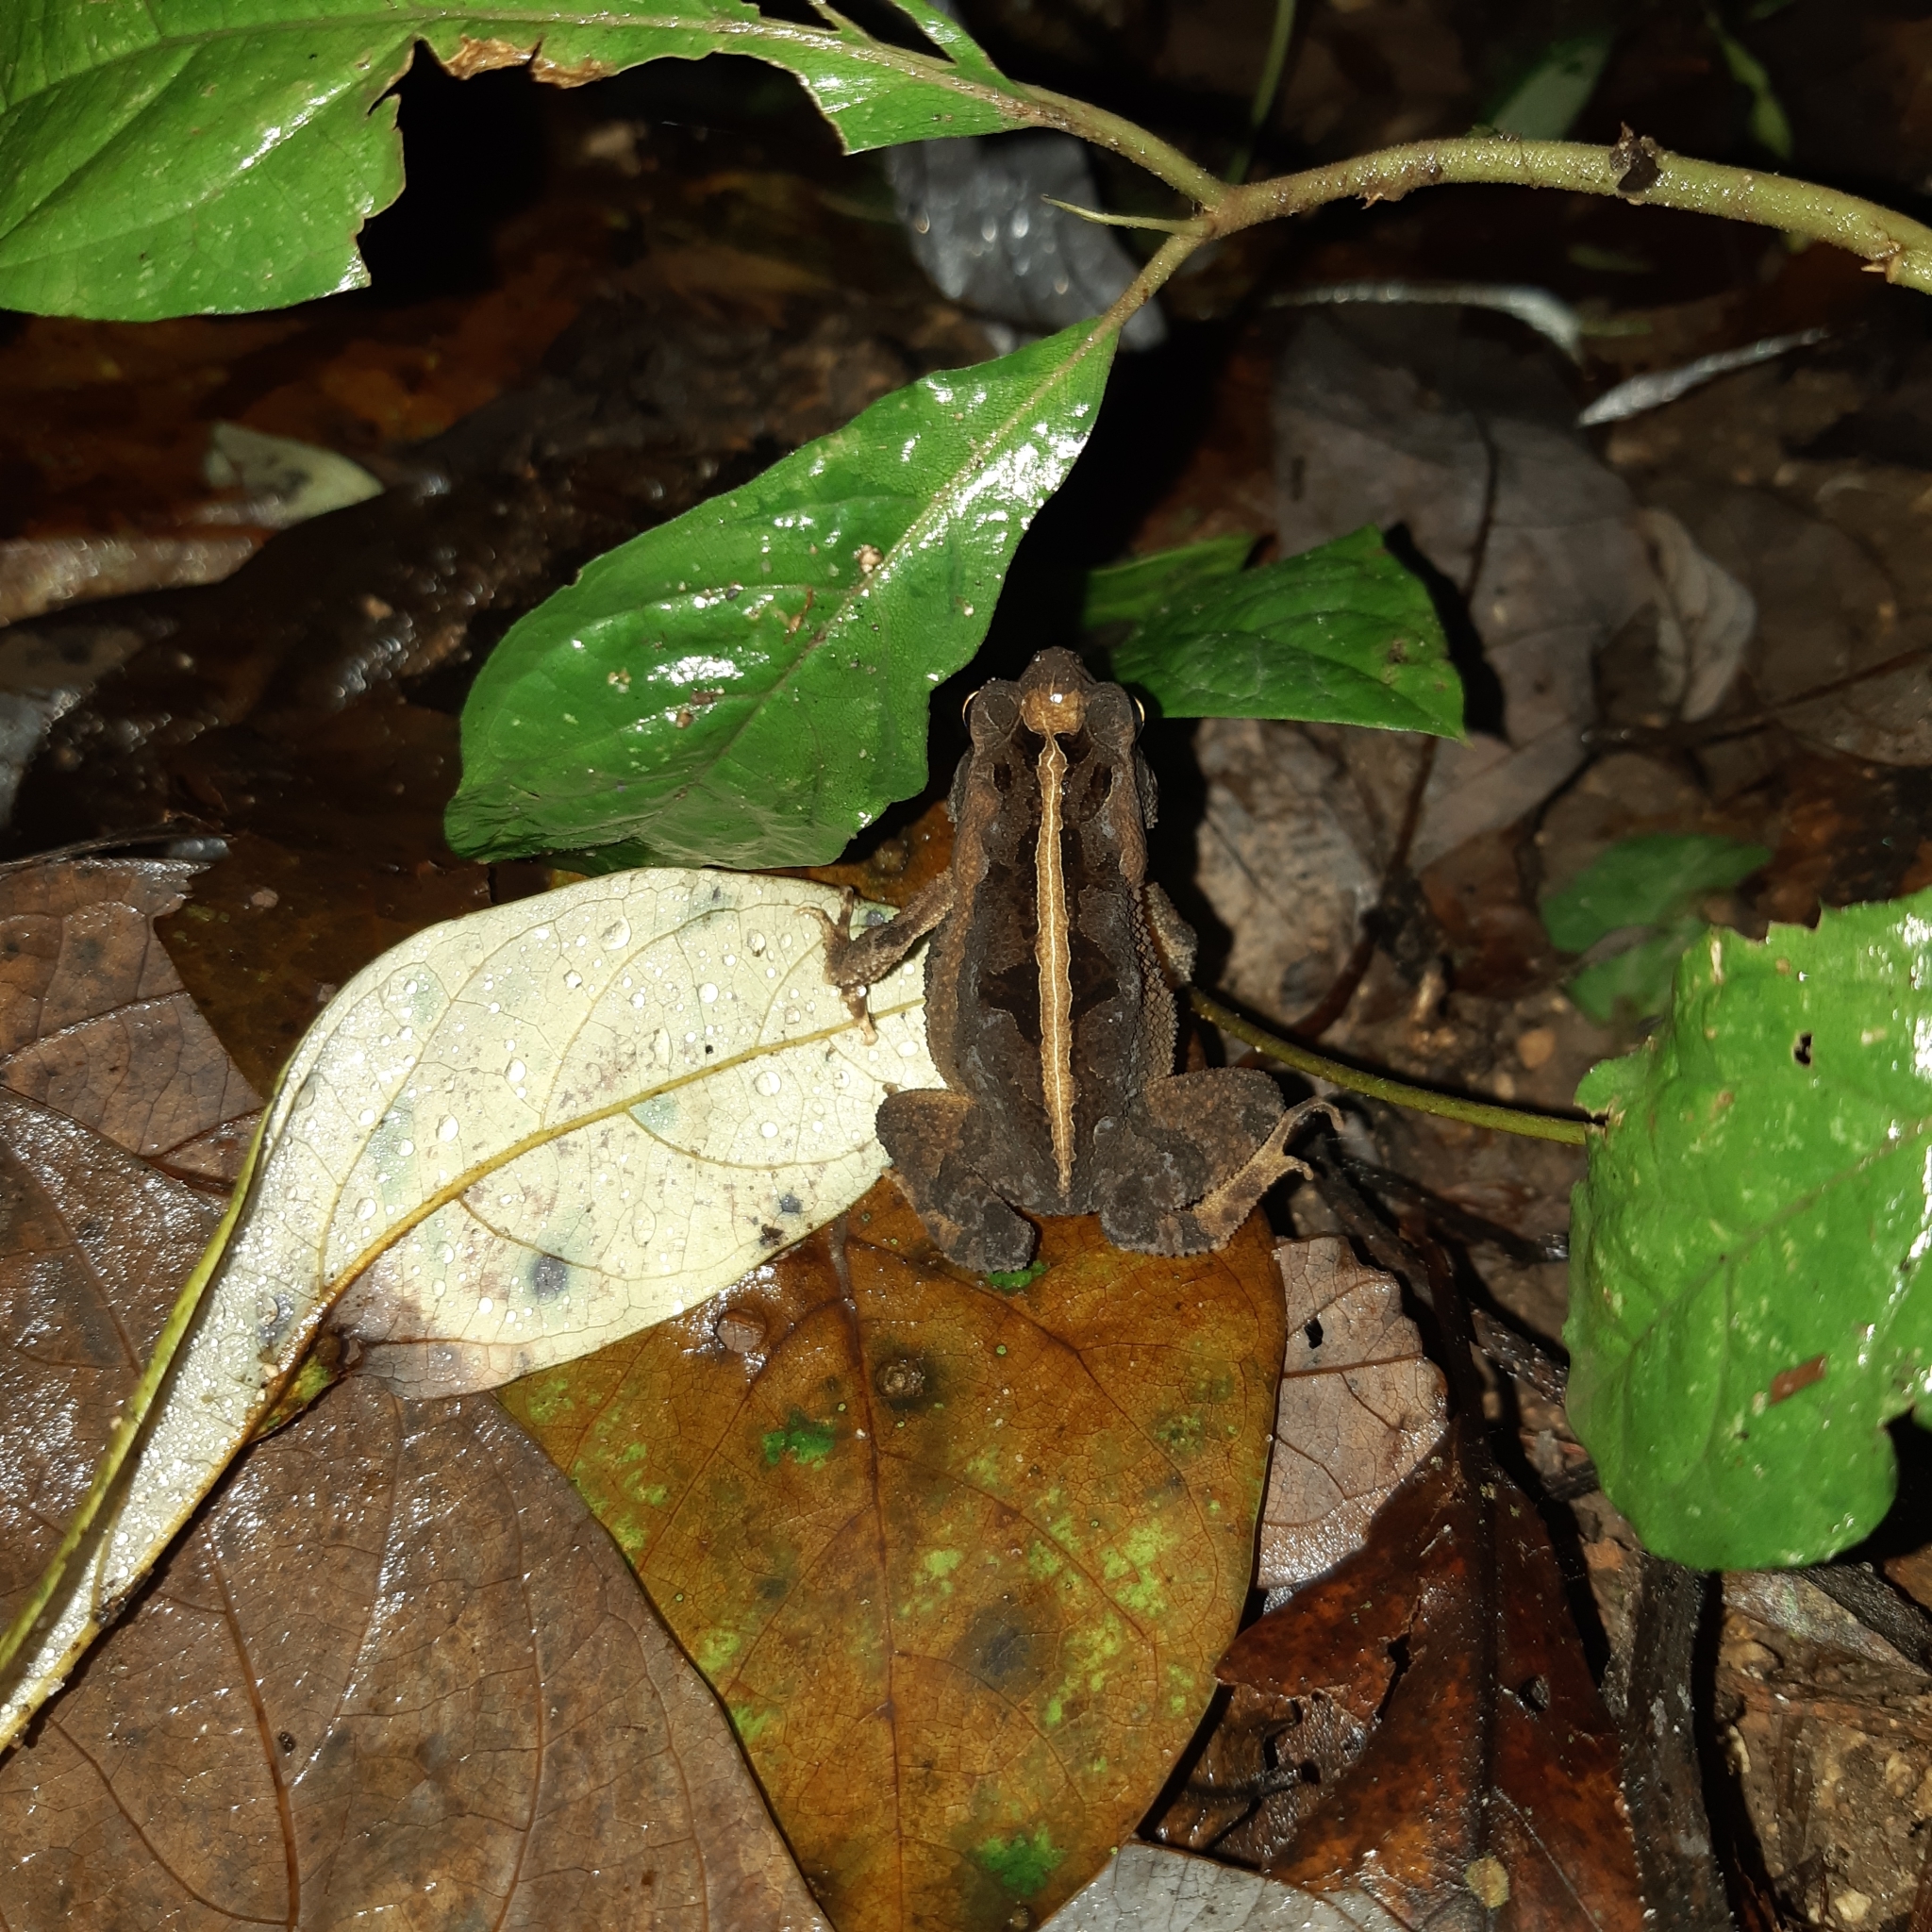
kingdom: Animalia
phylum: Chordata
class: Amphibia
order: Anura
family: Bufonidae
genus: Incilius
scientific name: Incilius canaliferus
